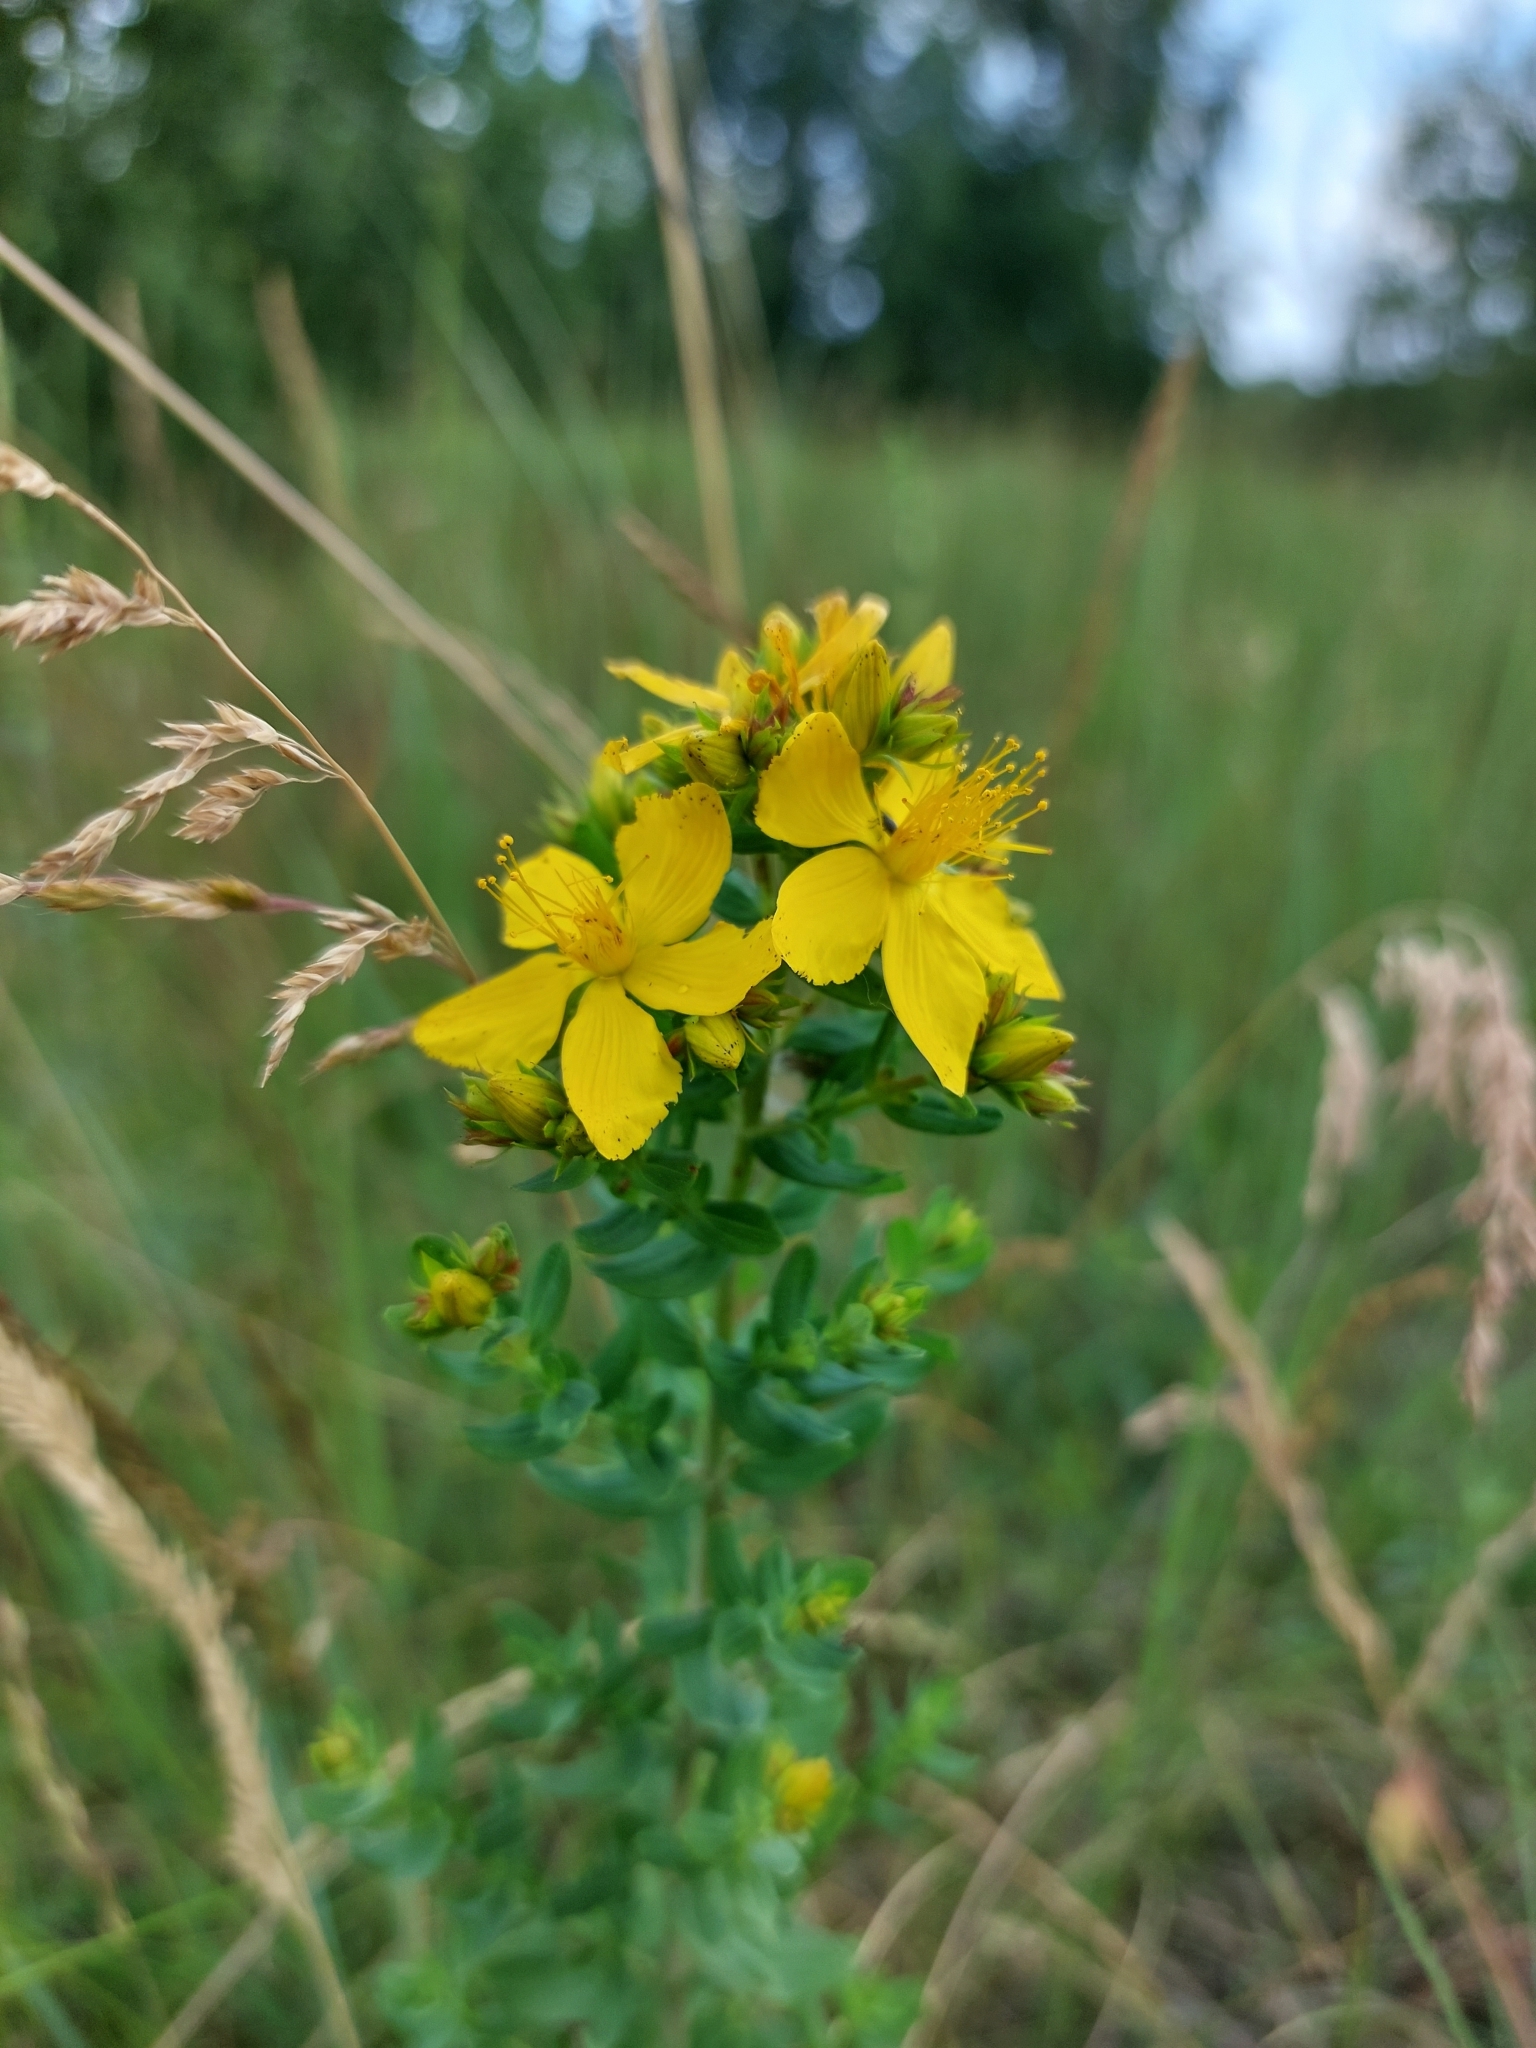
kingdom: Plantae
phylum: Tracheophyta
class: Magnoliopsida
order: Malpighiales
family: Hypericaceae
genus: Hypericum
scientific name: Hypericum perforatum
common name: Common st. johnswort
